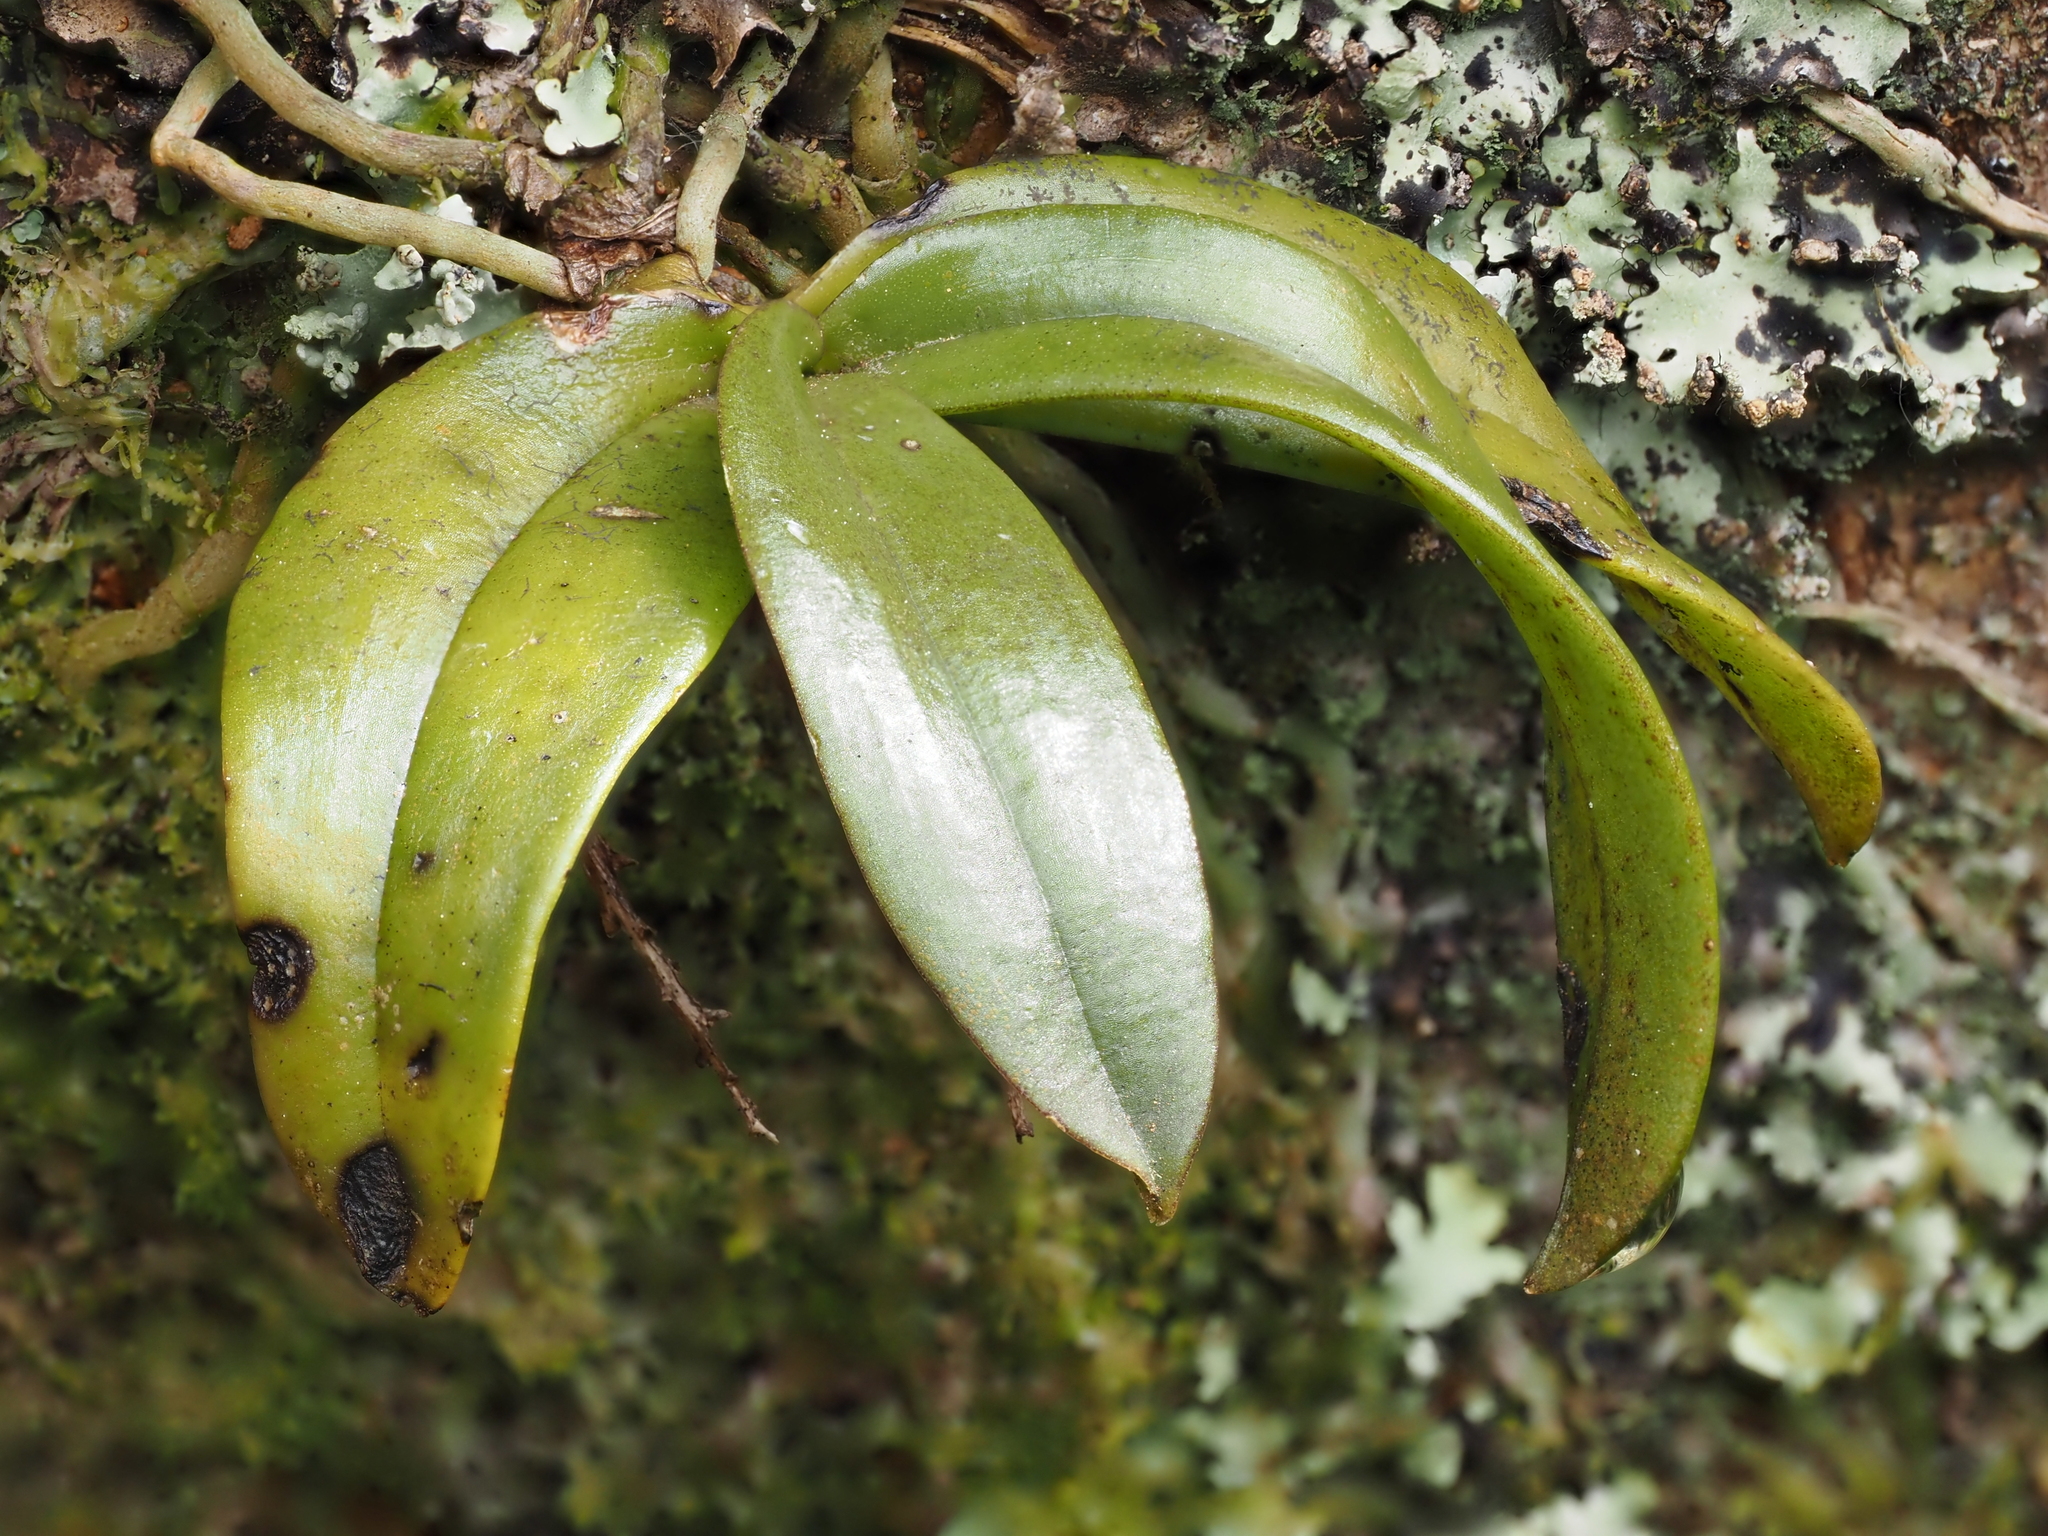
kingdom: Plantae
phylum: Tracheophyta
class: Liliopsida
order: Asparagales
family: Orchidaceae
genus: Drymoanthus
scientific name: Drymoanthus adversus
